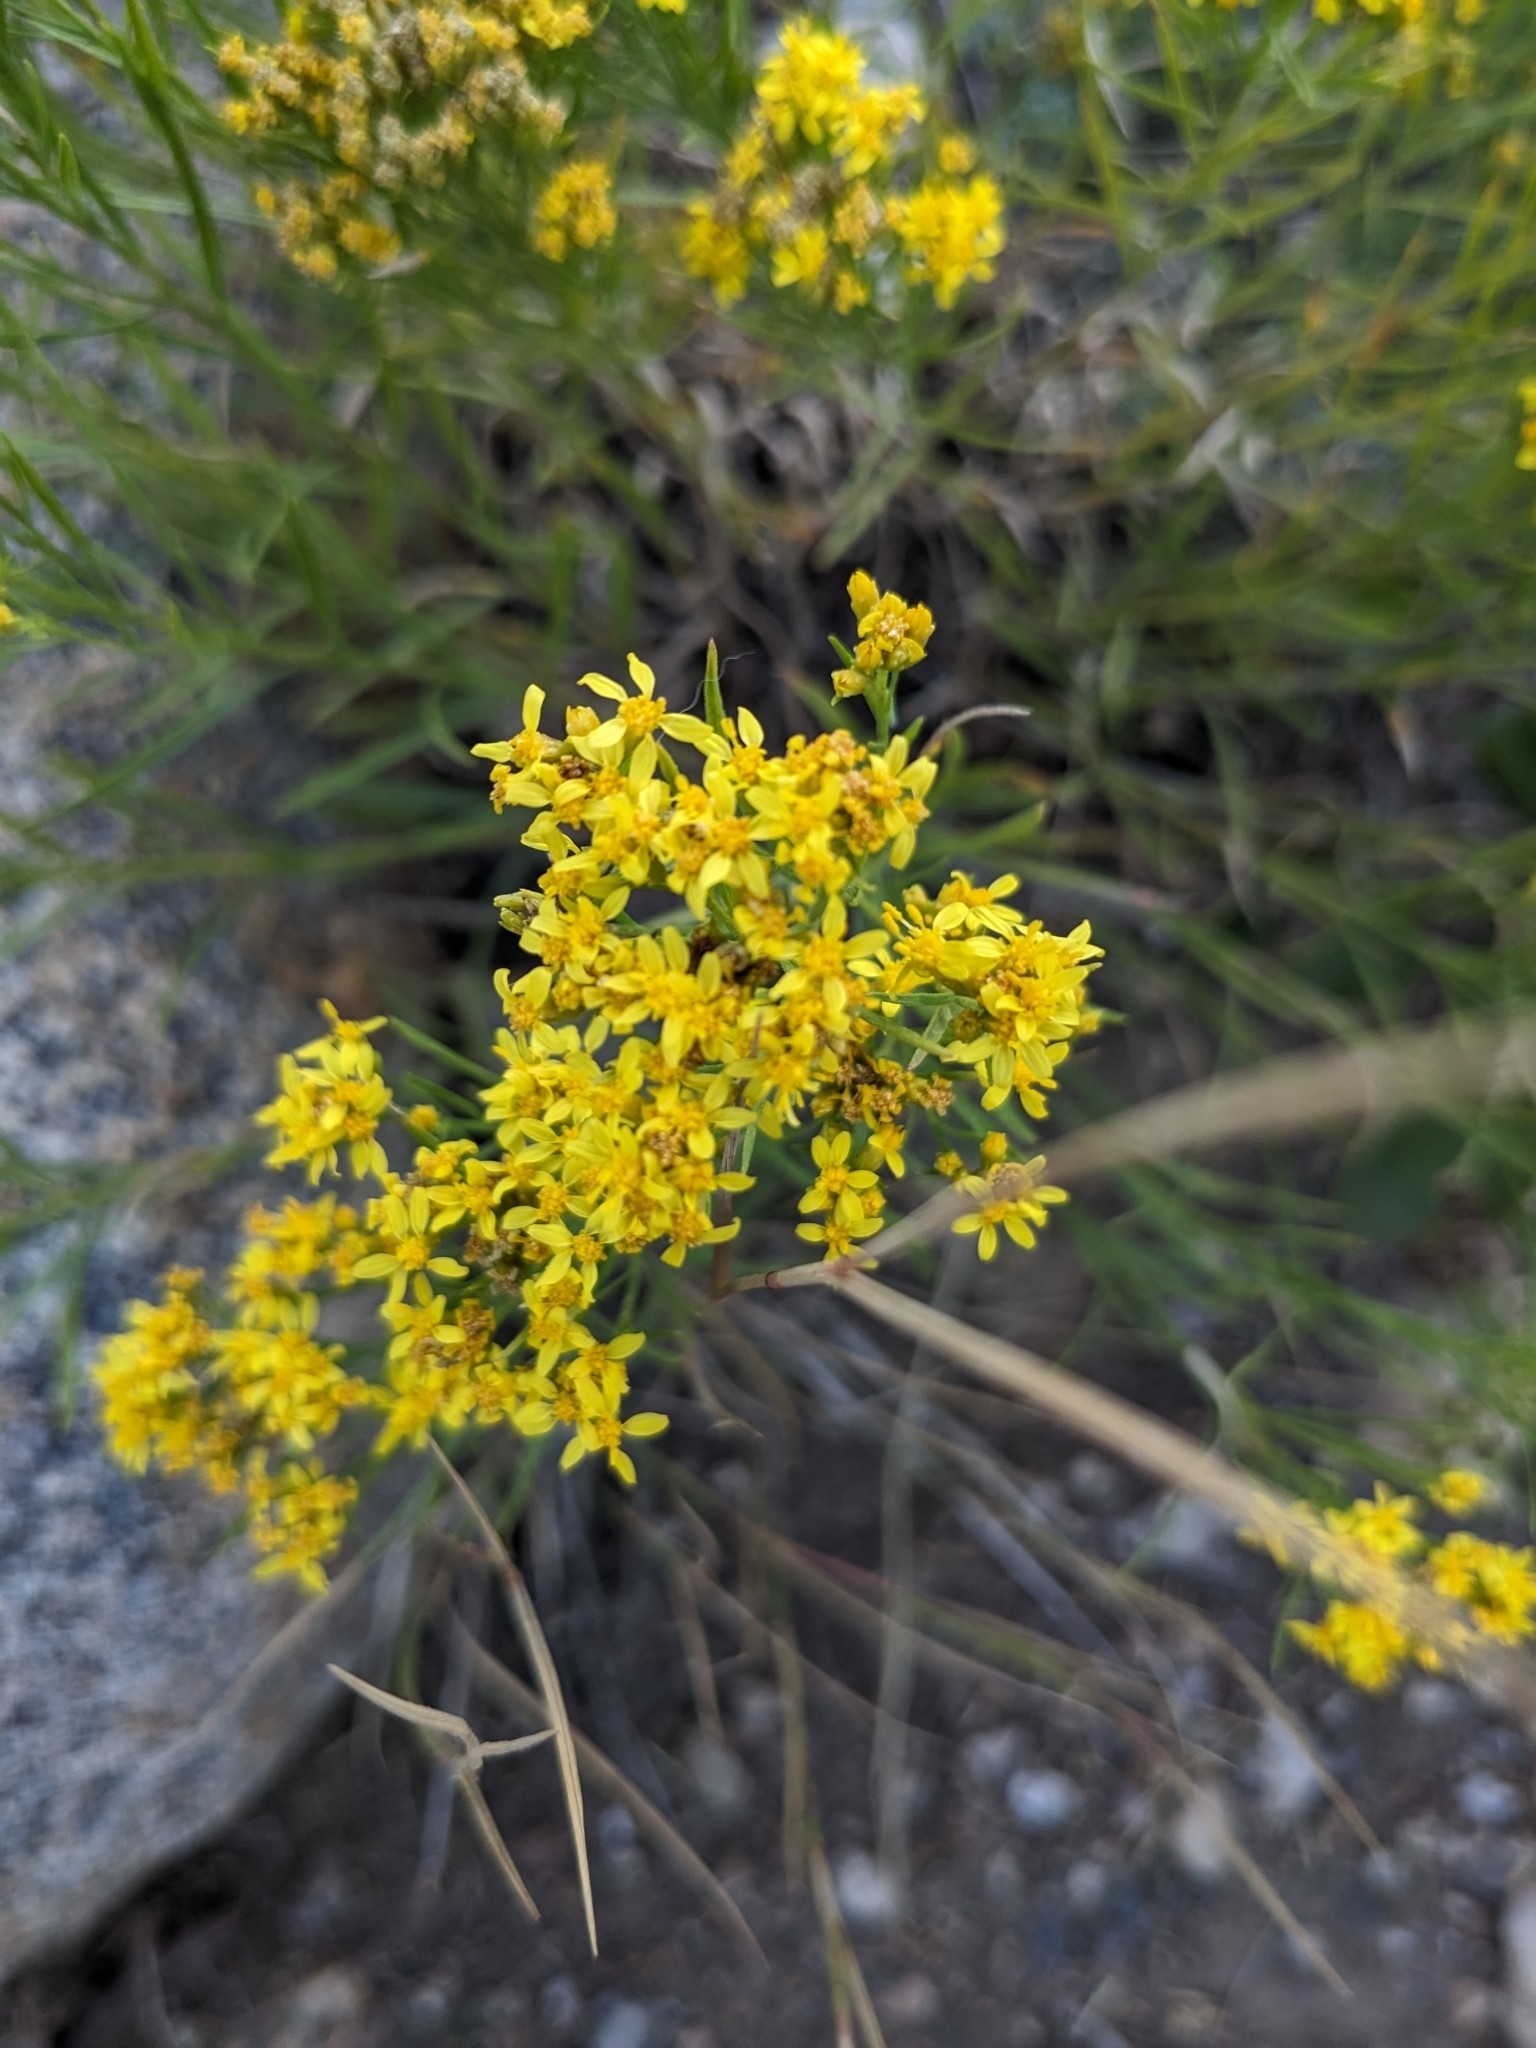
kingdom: Plantae
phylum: Tracheophyta
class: Magnoliopsida
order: Asterales
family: Asteraceae
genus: Gutierrezia
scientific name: Gutierrezia sarothrae
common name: Broom snakeweed
